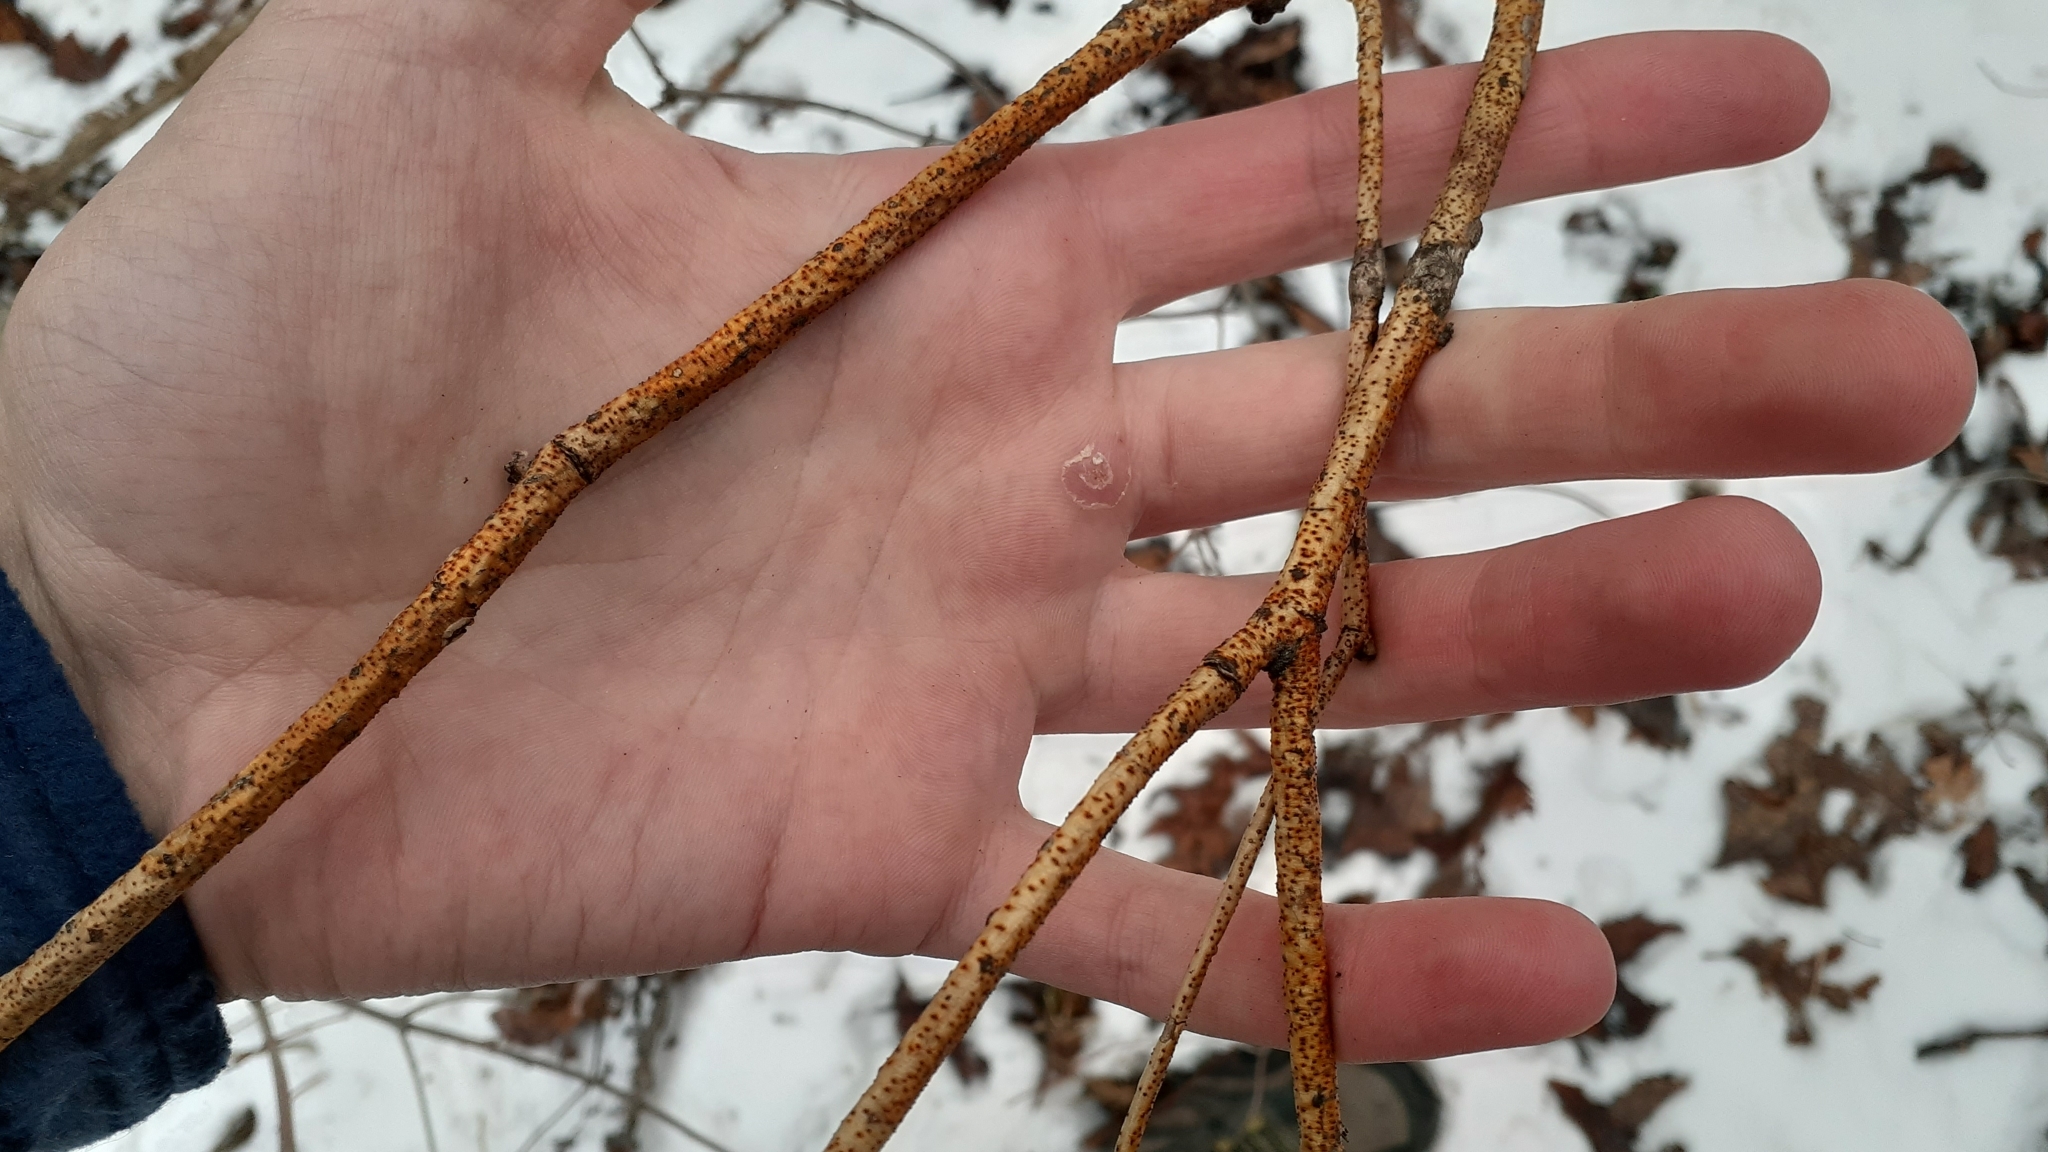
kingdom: Fungi
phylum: Ascomycota
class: Sordariomycetes
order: Diaporthales
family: Cryphonectriaceae
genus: Aurantioporthe
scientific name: Aurantioporthe corni
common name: Dogwood golden canker
